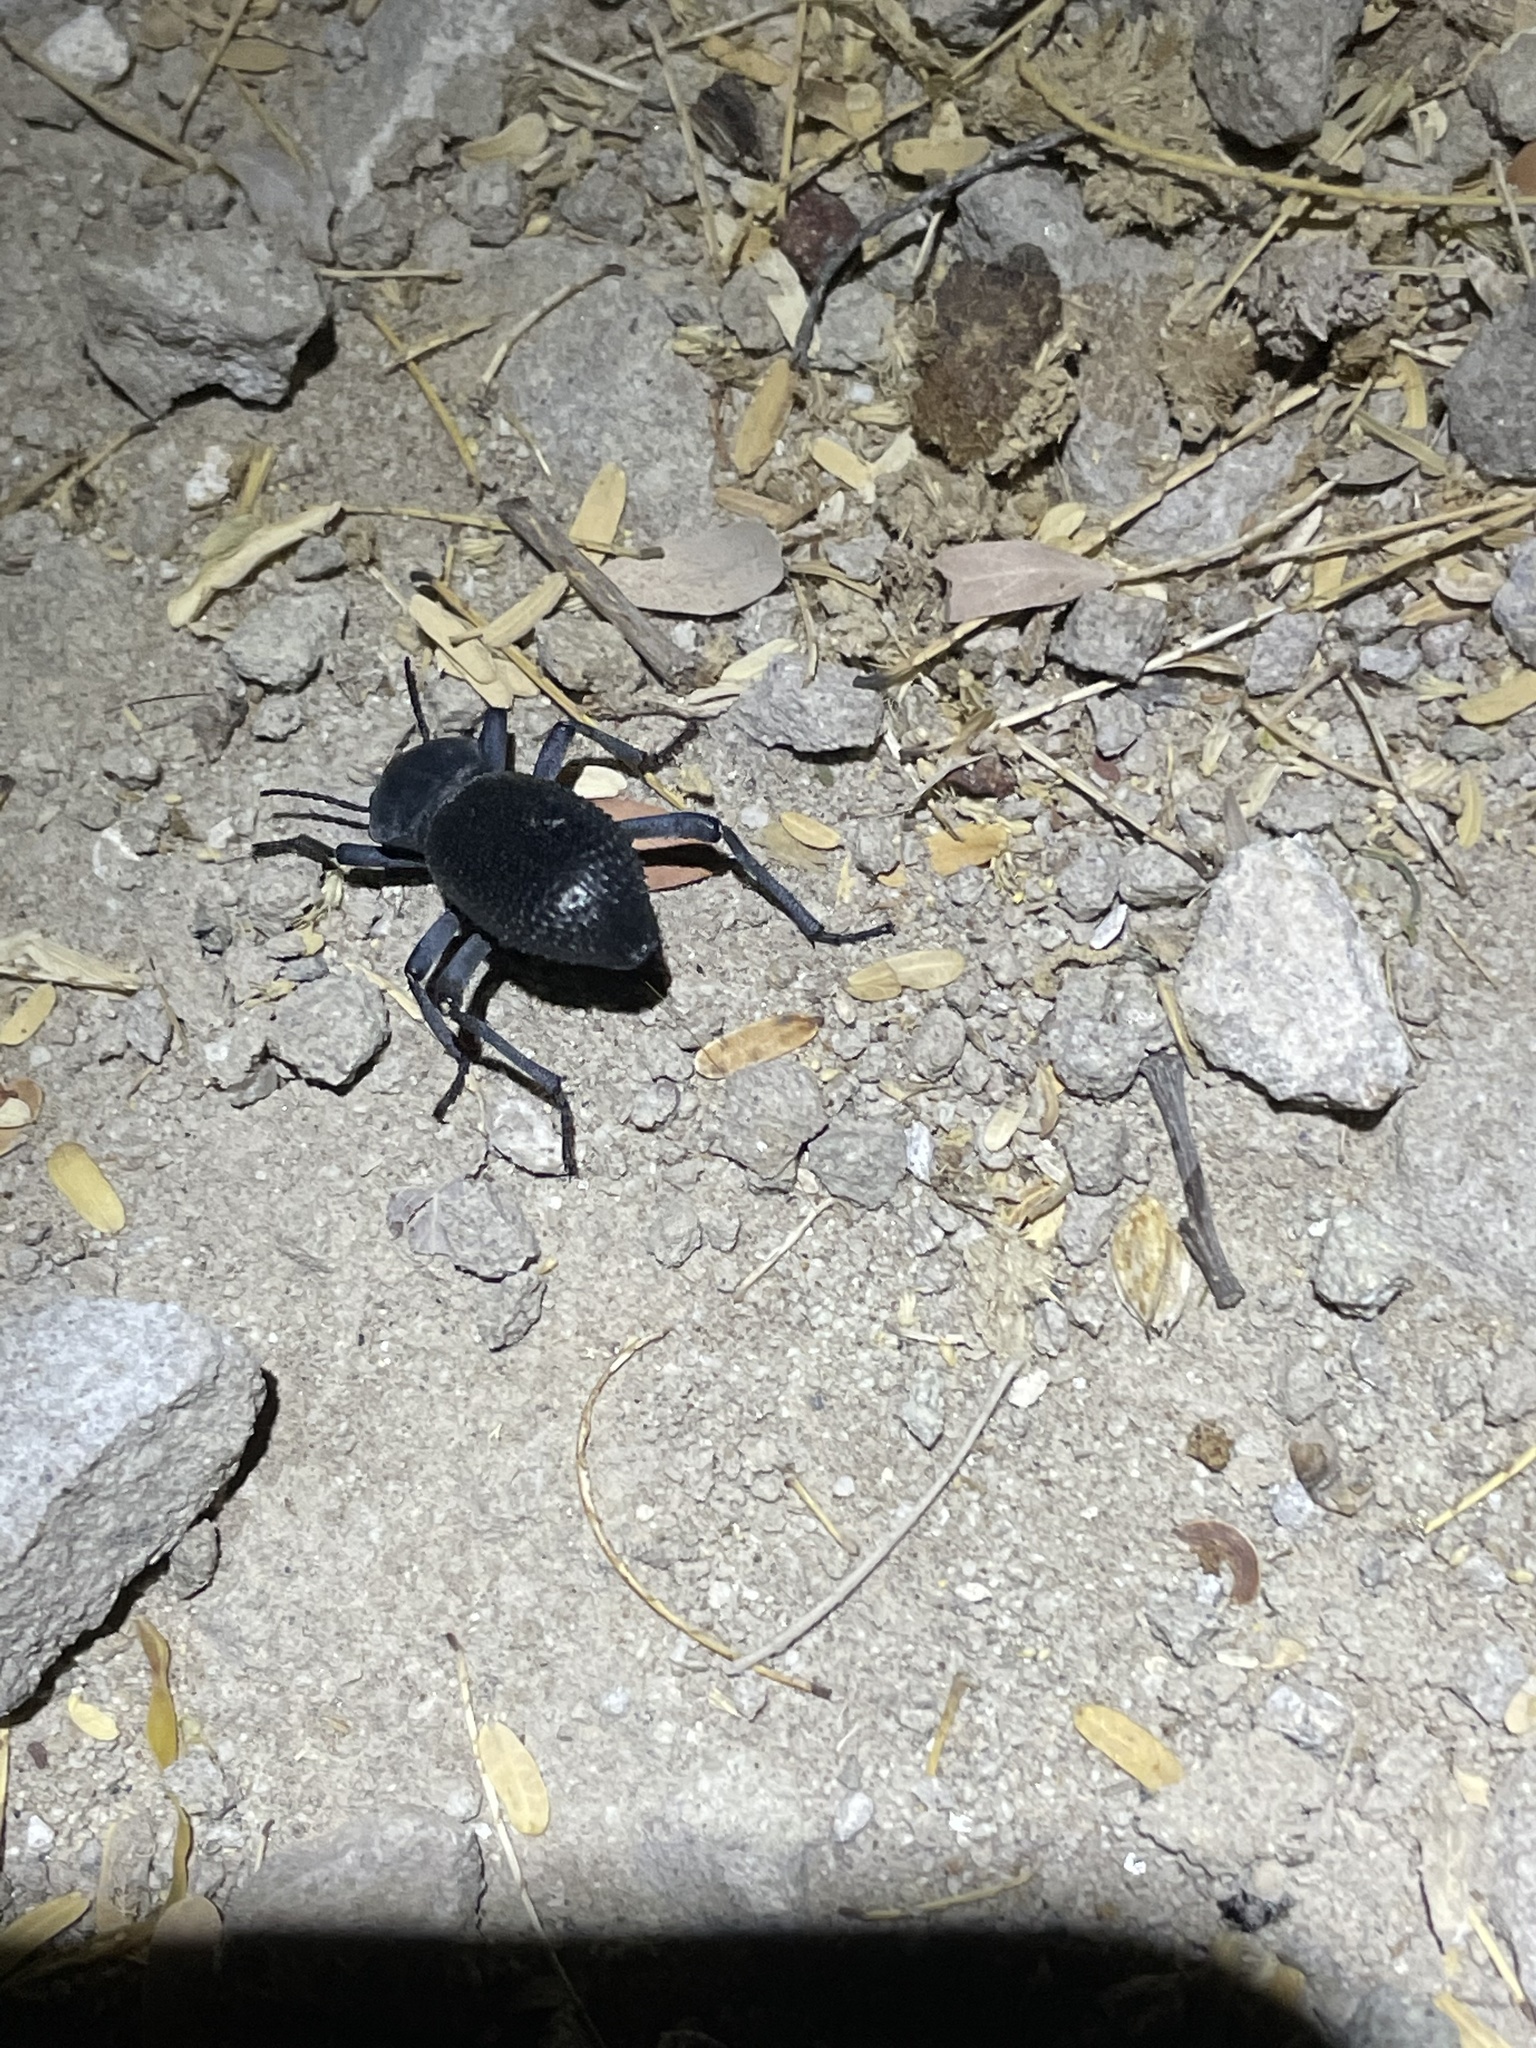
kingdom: Animalia
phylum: Arthropoda
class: Insecta
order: Coleoptera
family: Tenebrionidae
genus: Cryptoglossa
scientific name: Cryptoglossa spiculifera
